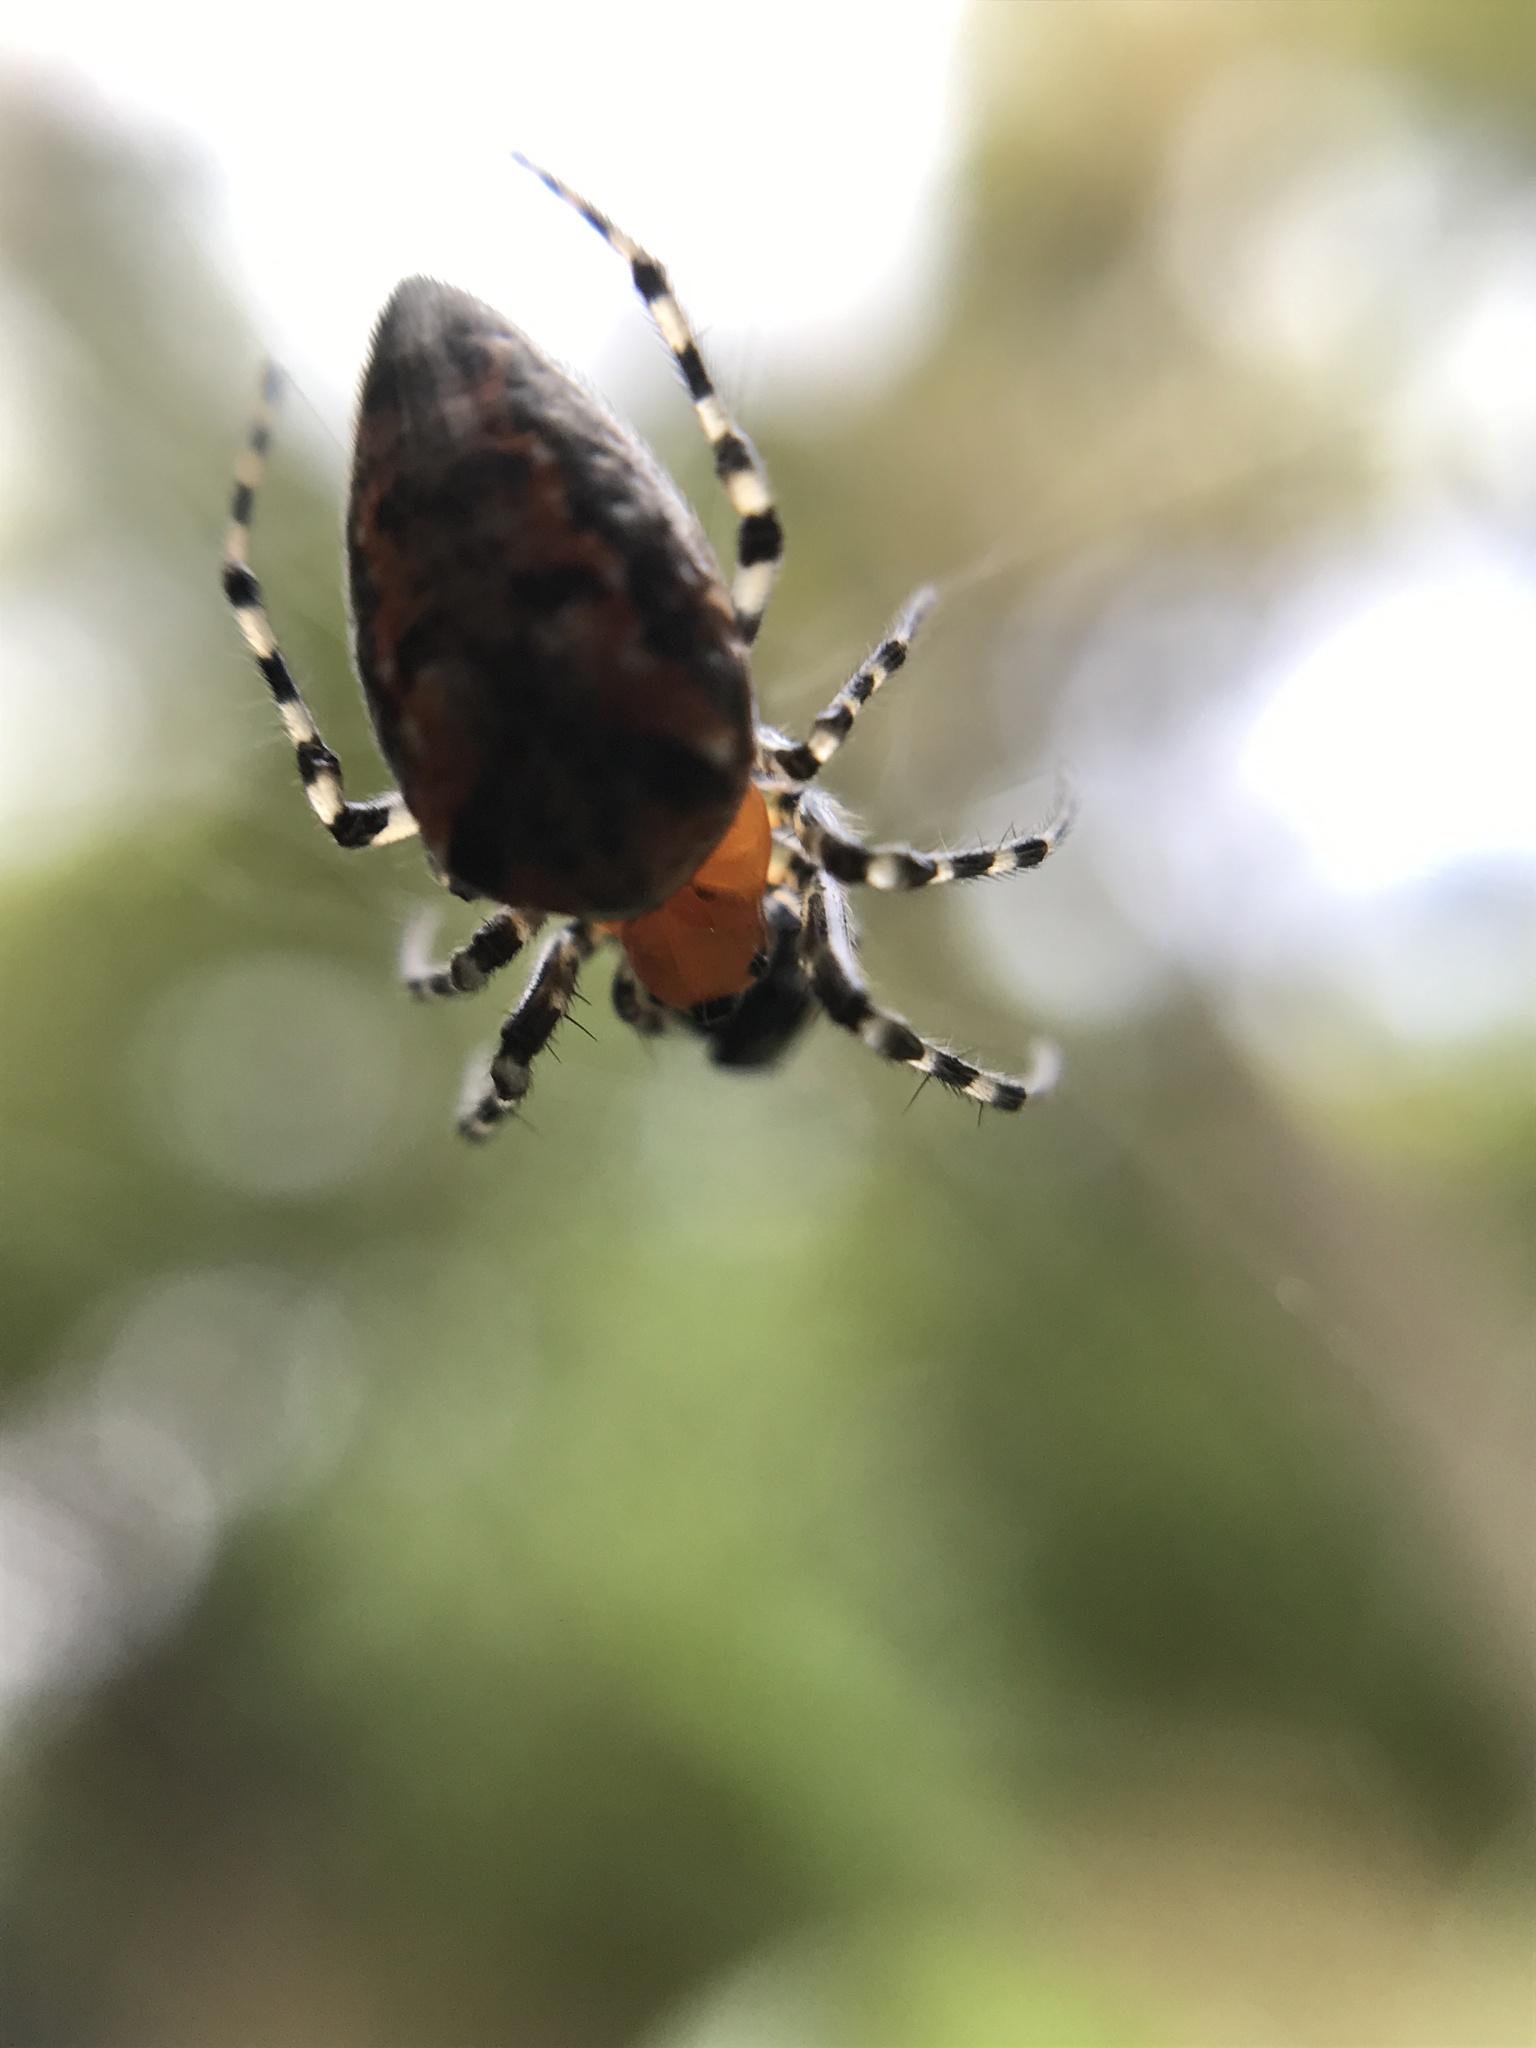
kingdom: Animalia
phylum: Arthropoda
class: Arachnida
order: Araneae
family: Araneidae
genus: Alpaida
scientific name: Alpaida gallardoi
